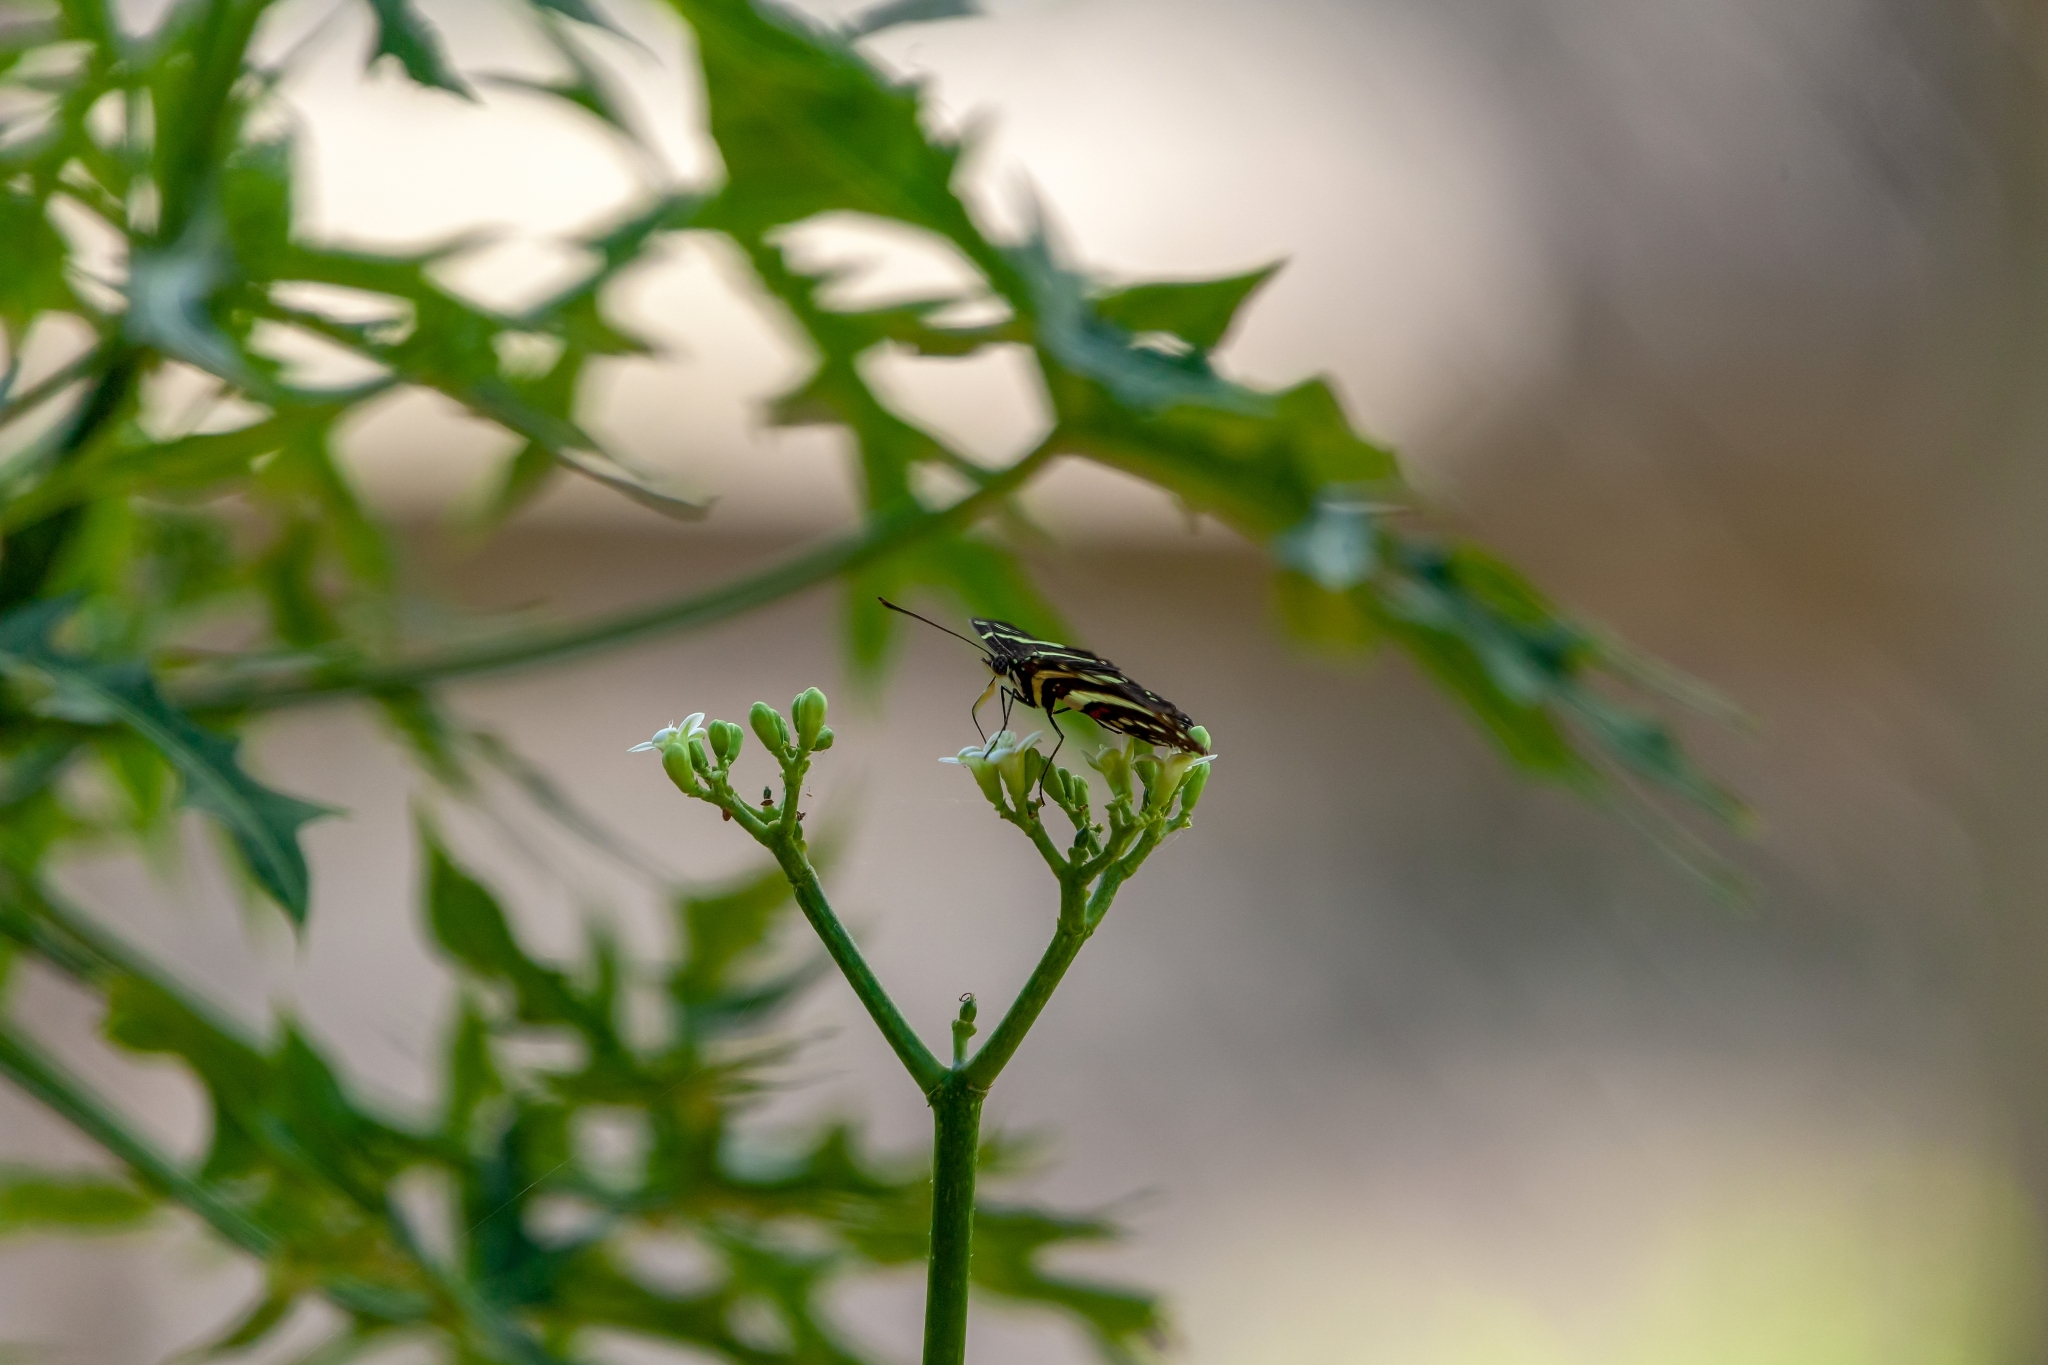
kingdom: Animalia
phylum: Arthropoda
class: Insecta
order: Lepidoptera
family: Nymphalidae
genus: Heliconius
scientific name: Heliconius charithonia
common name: Zebra long wing
